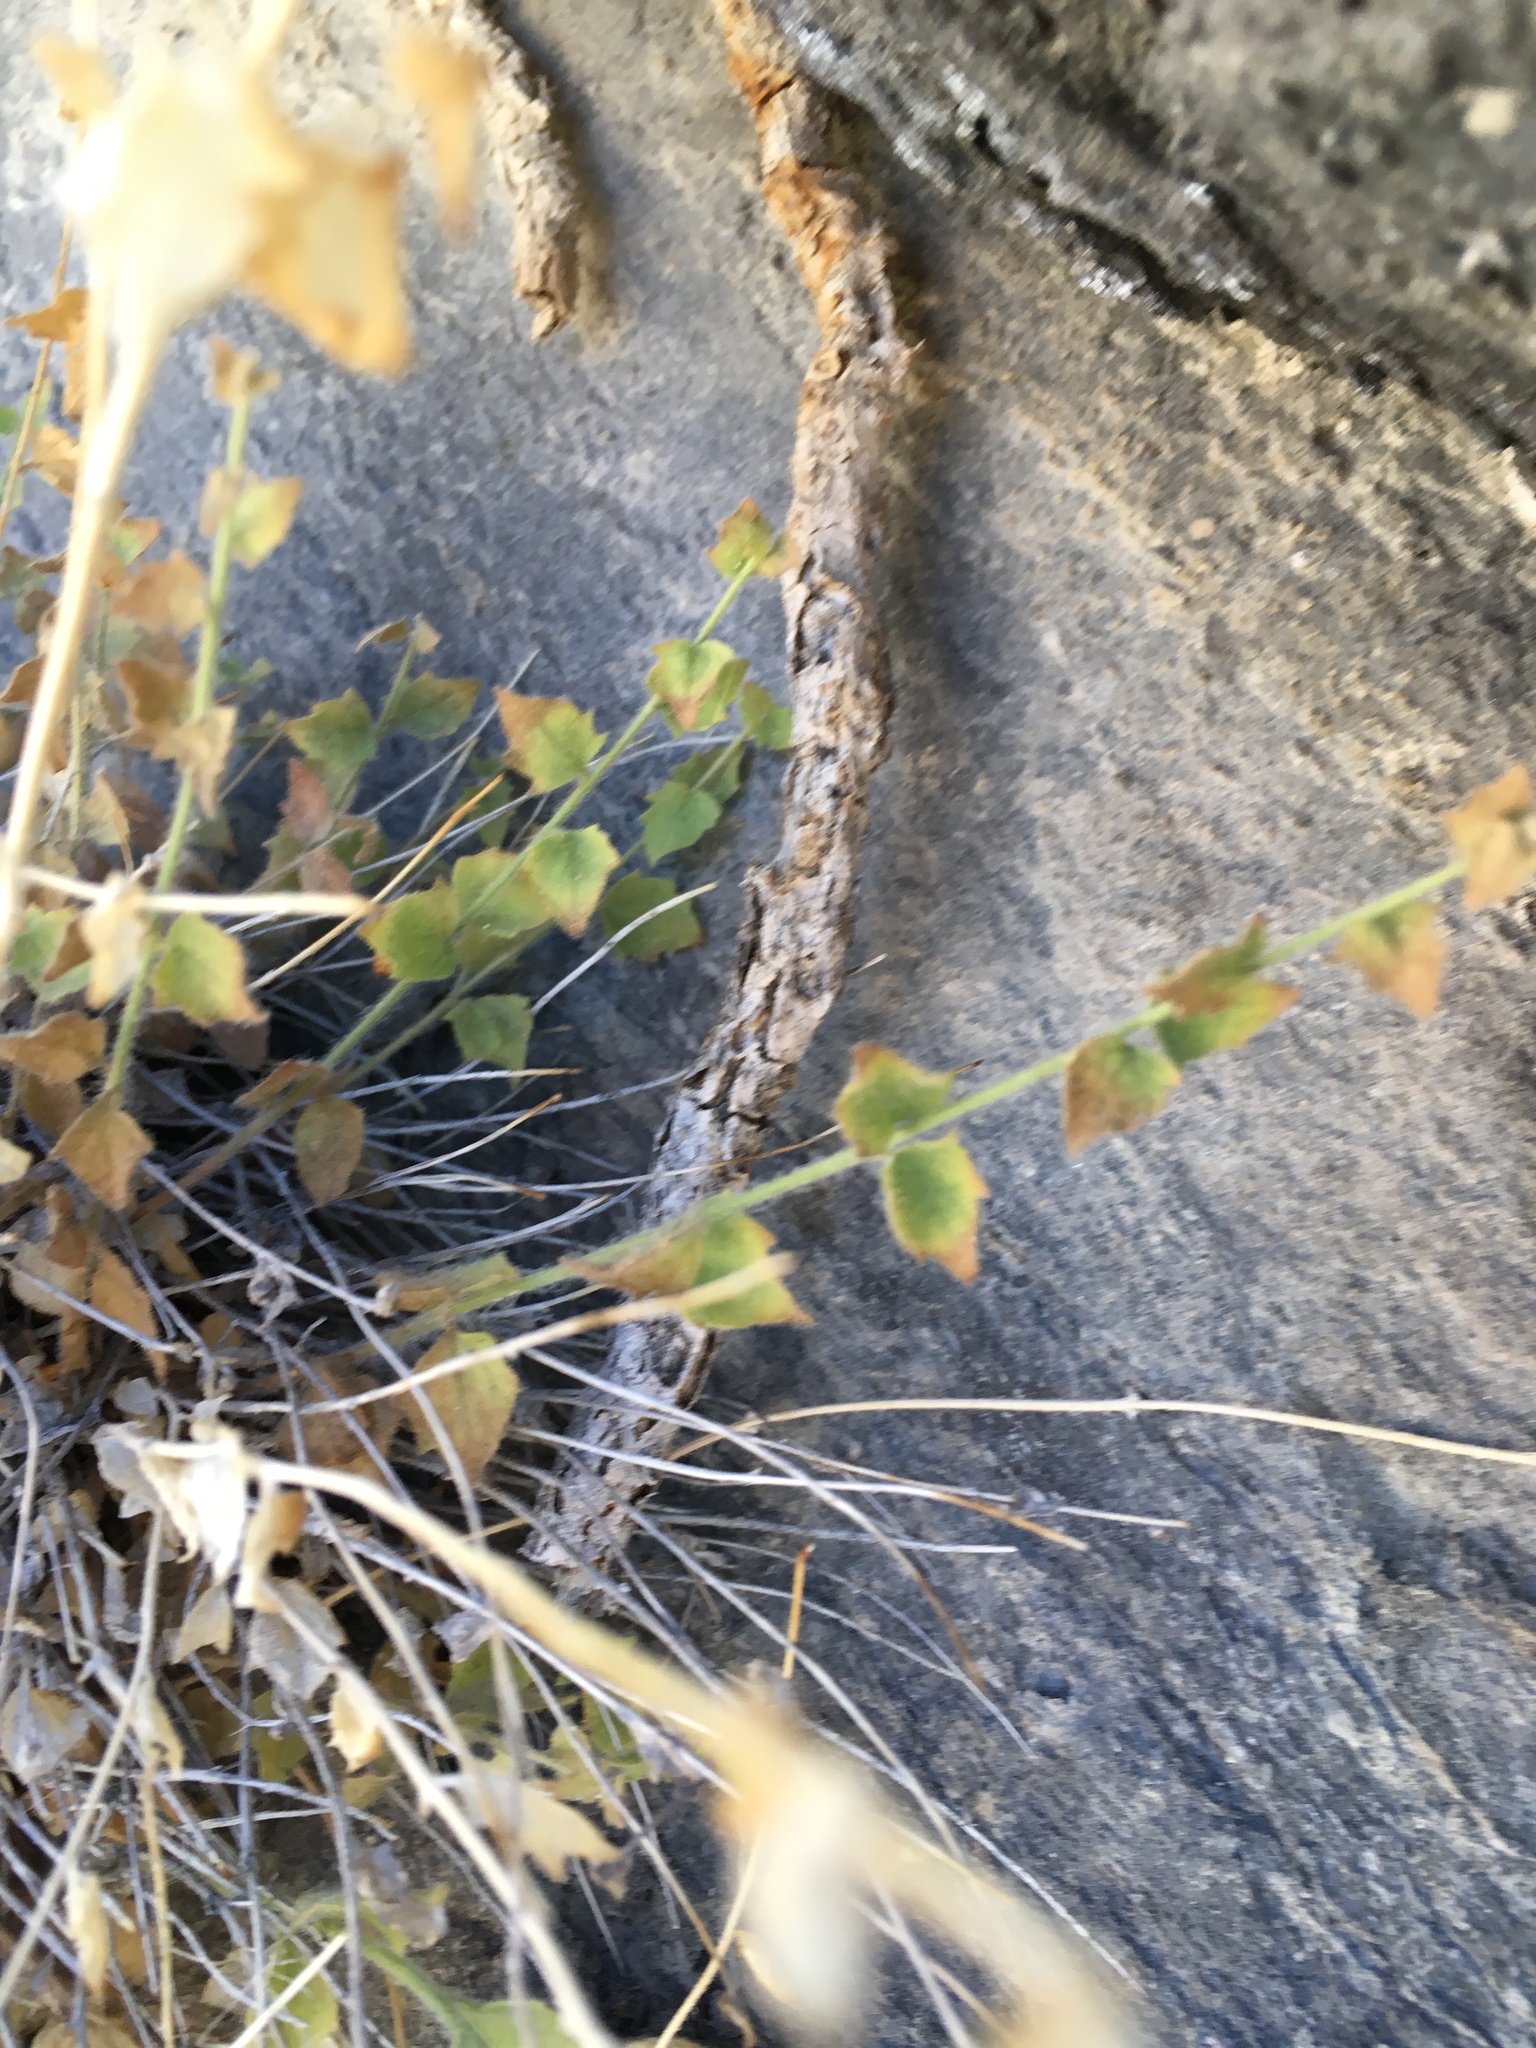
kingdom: Plantae
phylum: Tracheophyta
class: Magnoliopsida
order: Asterales
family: Asteraceae
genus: Laphamia
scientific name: Laphamia inyoensis
